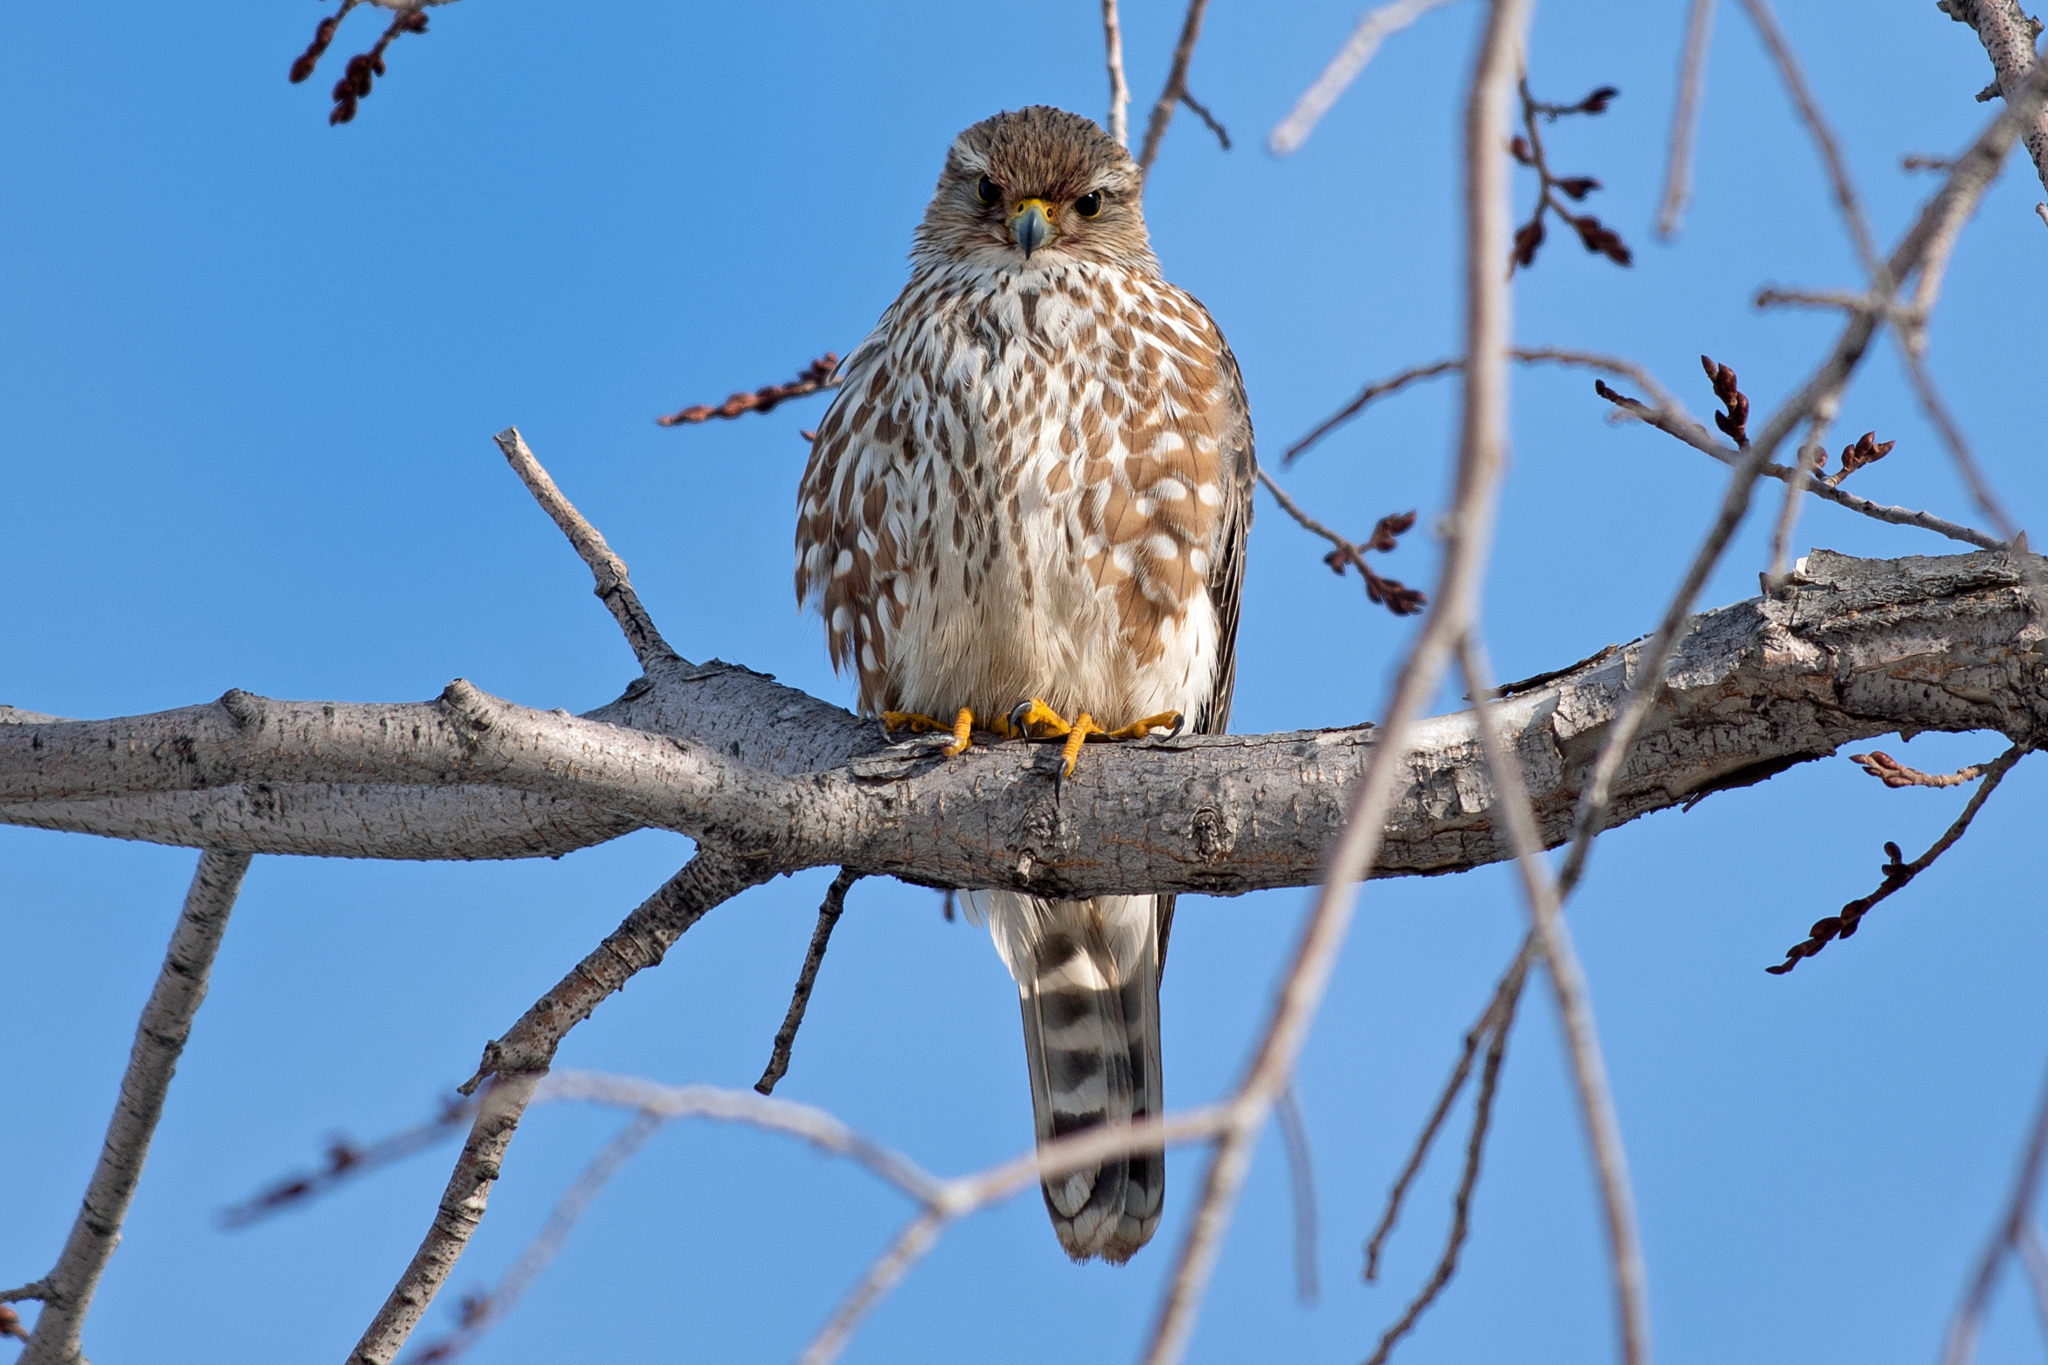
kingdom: Animalia
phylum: Chordata
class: Aves
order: Falconiformes
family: Falconidae
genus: Falco
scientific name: Falco columbarius
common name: Merlin
